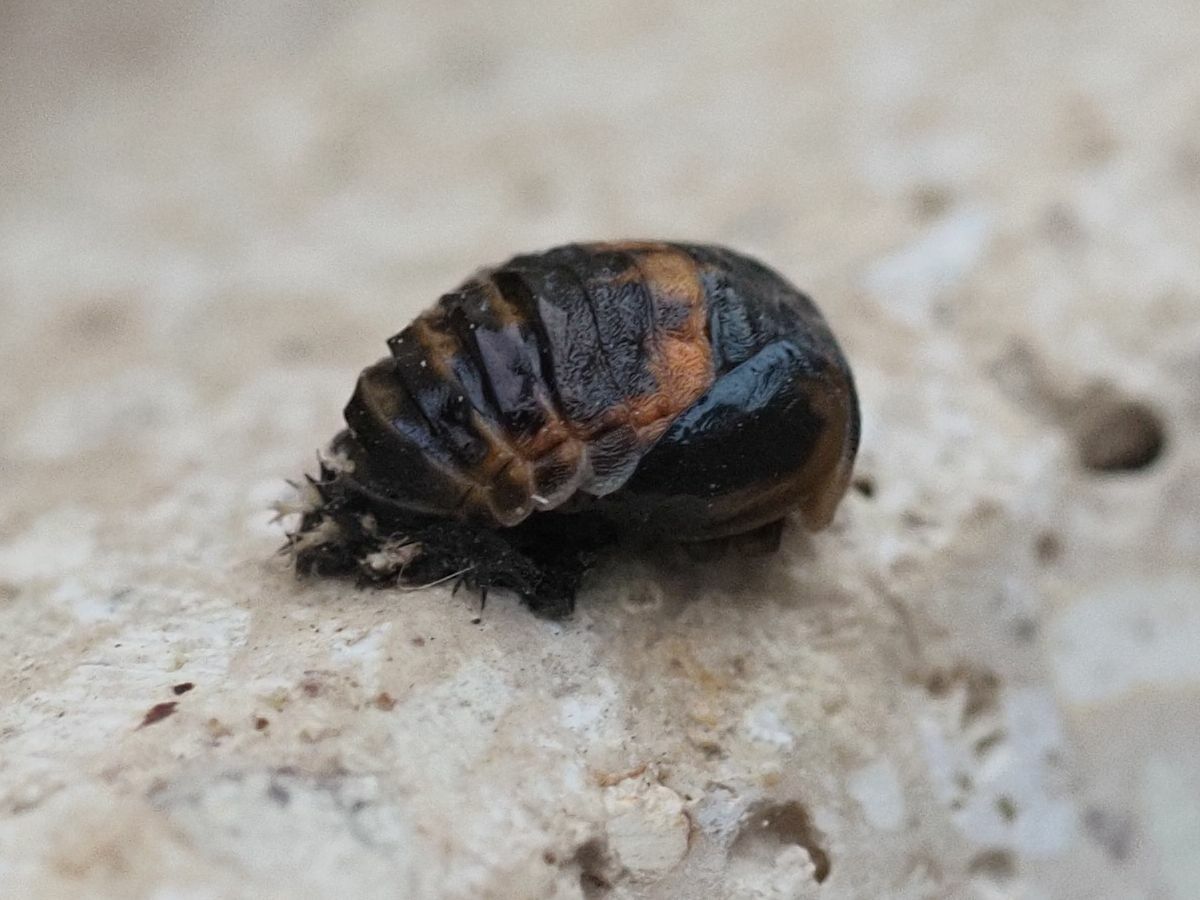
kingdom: Animalia
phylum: Arthropoda
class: Insecta
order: Coleoptera
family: Coccinellidae
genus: Harmonia
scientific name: Harmonia axyridis
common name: Harlequin ladybird
